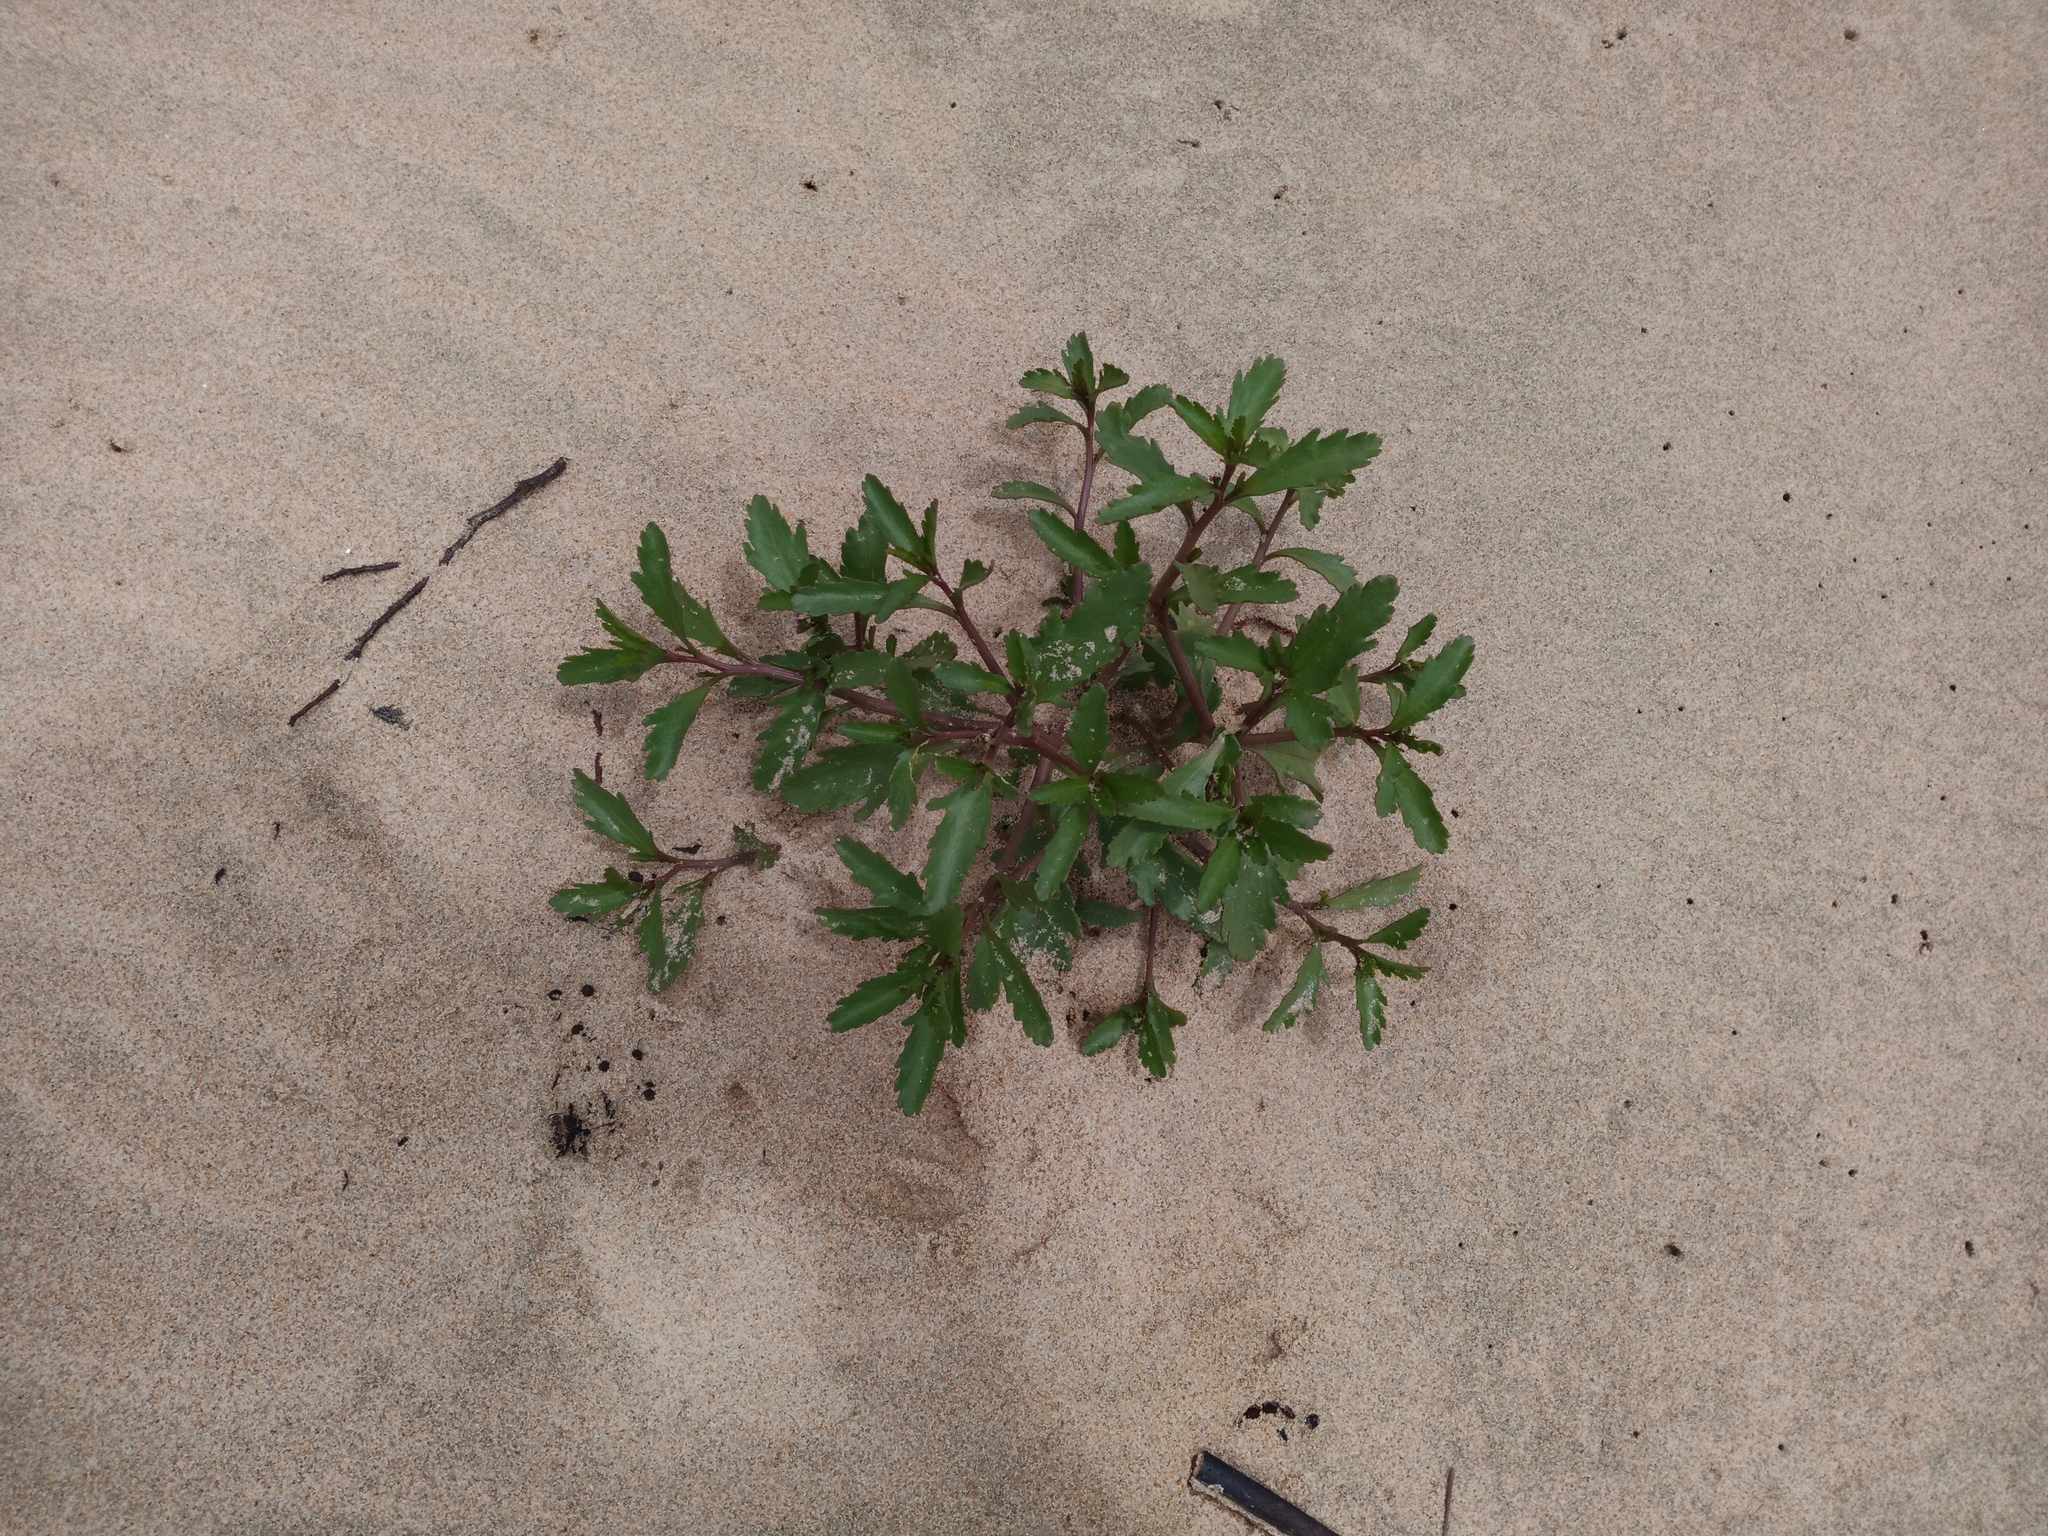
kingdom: Plantae
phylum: Tracheophyta
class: Magnoliopsida
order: Brassicales
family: Brassicaceae
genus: Cakile
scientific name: Cakile edentula
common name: American sea rocket
